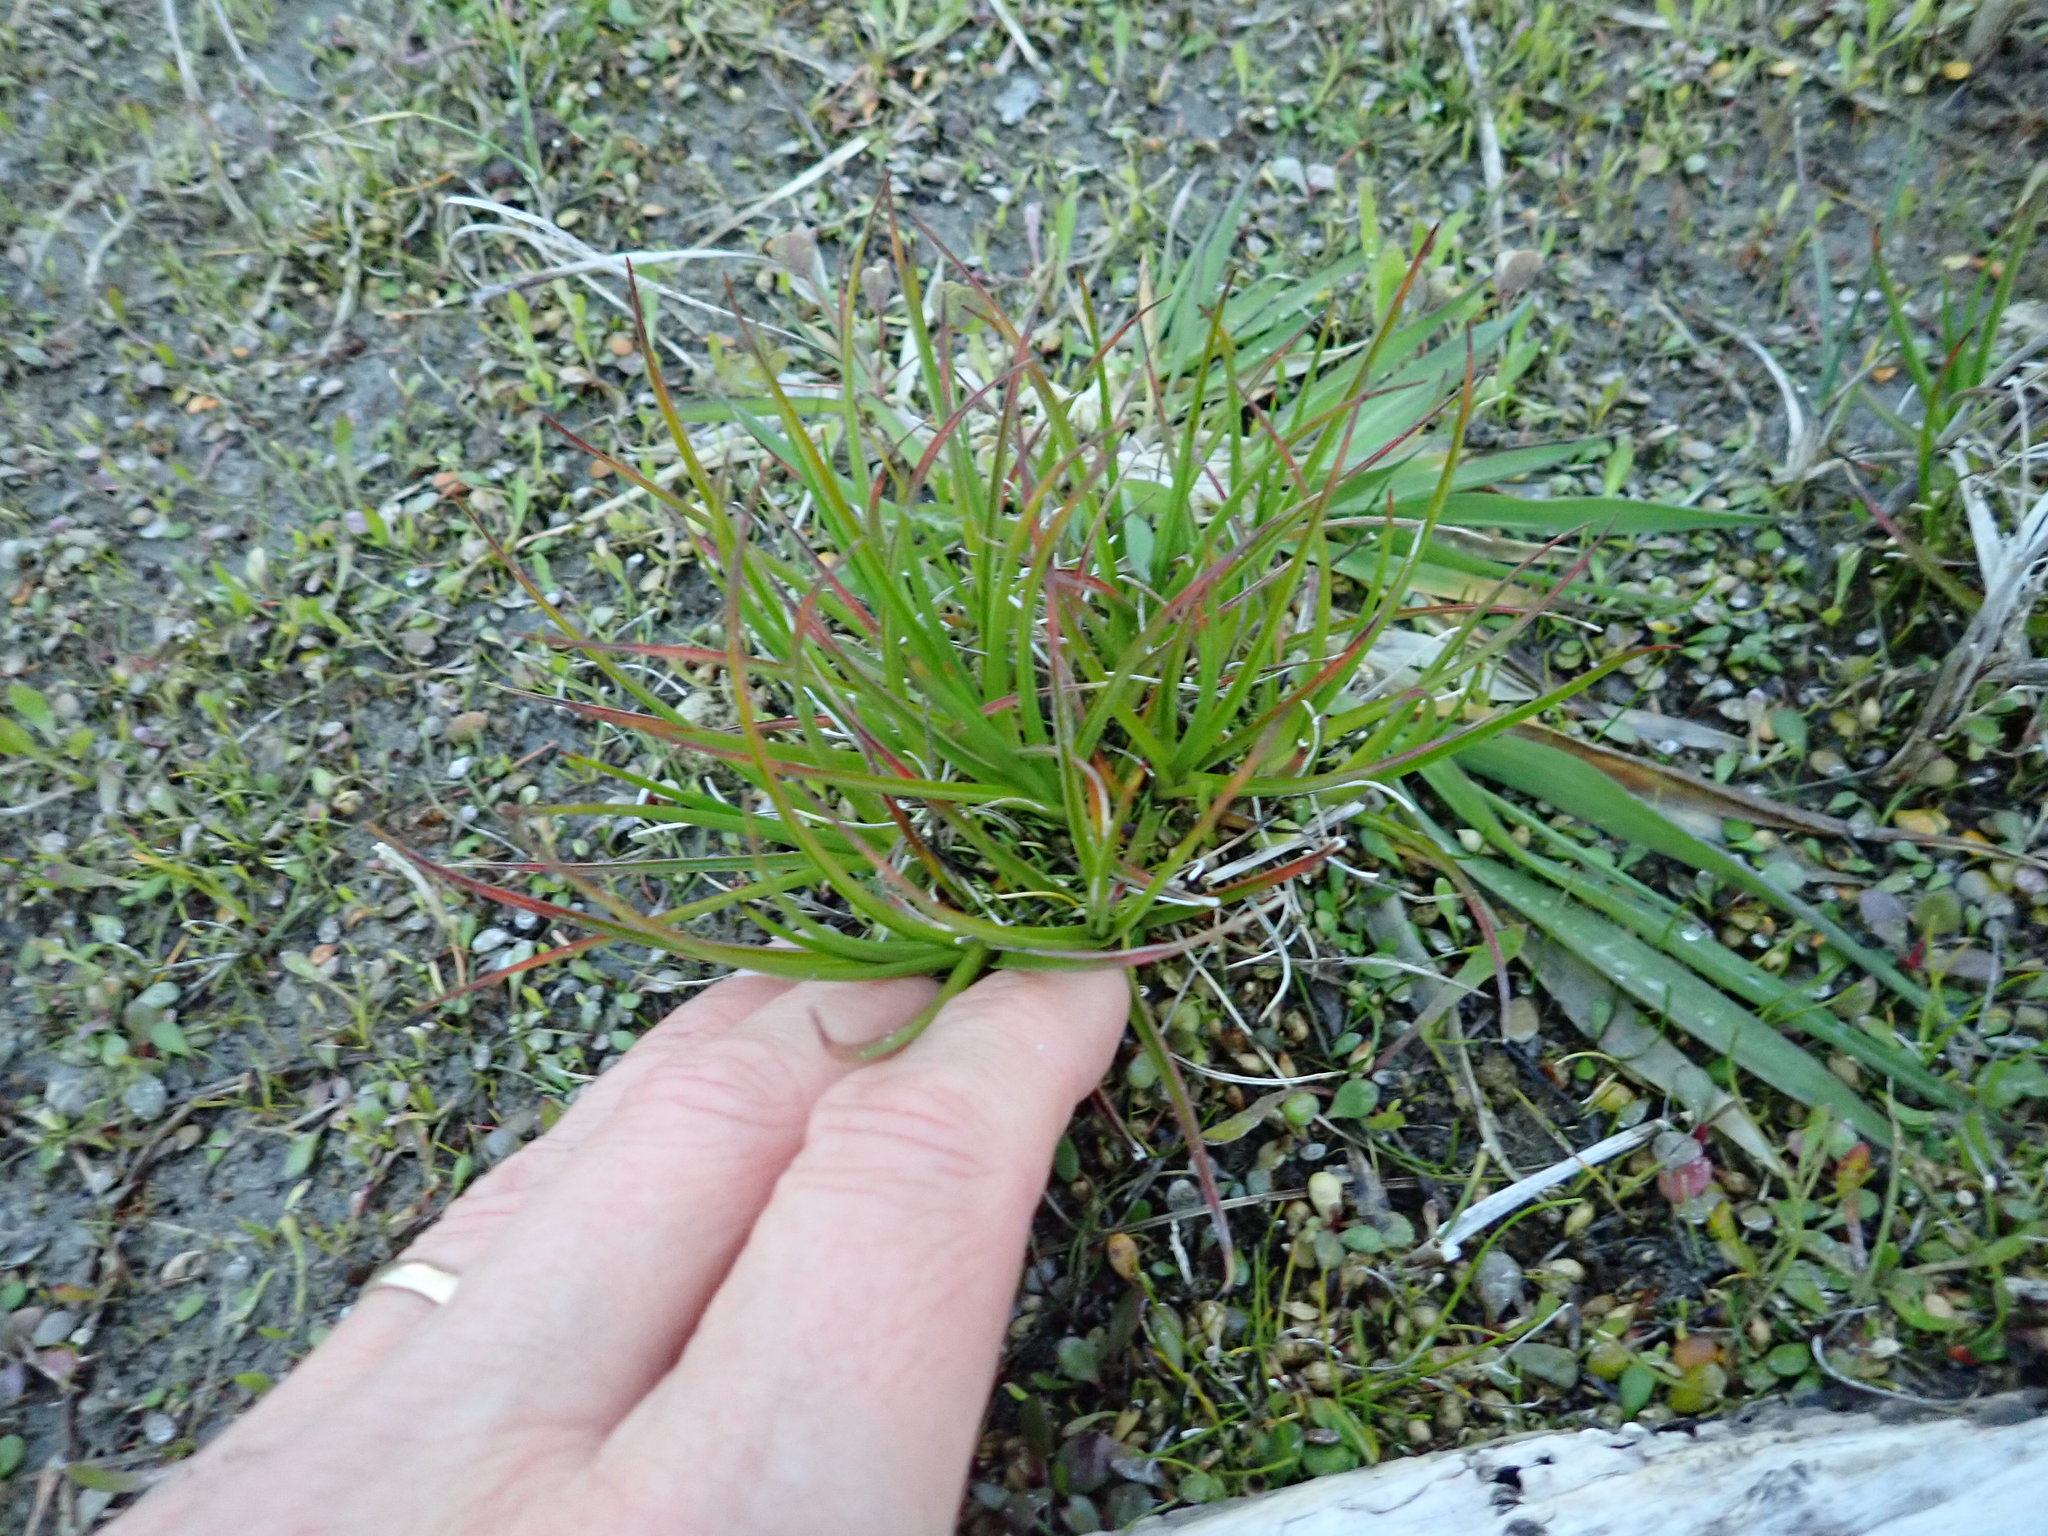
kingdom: Plantae
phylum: Tracheophyta
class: Liliopsida
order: Poales
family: Juncaceae
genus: Juncus
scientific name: Juncus caespiticius
